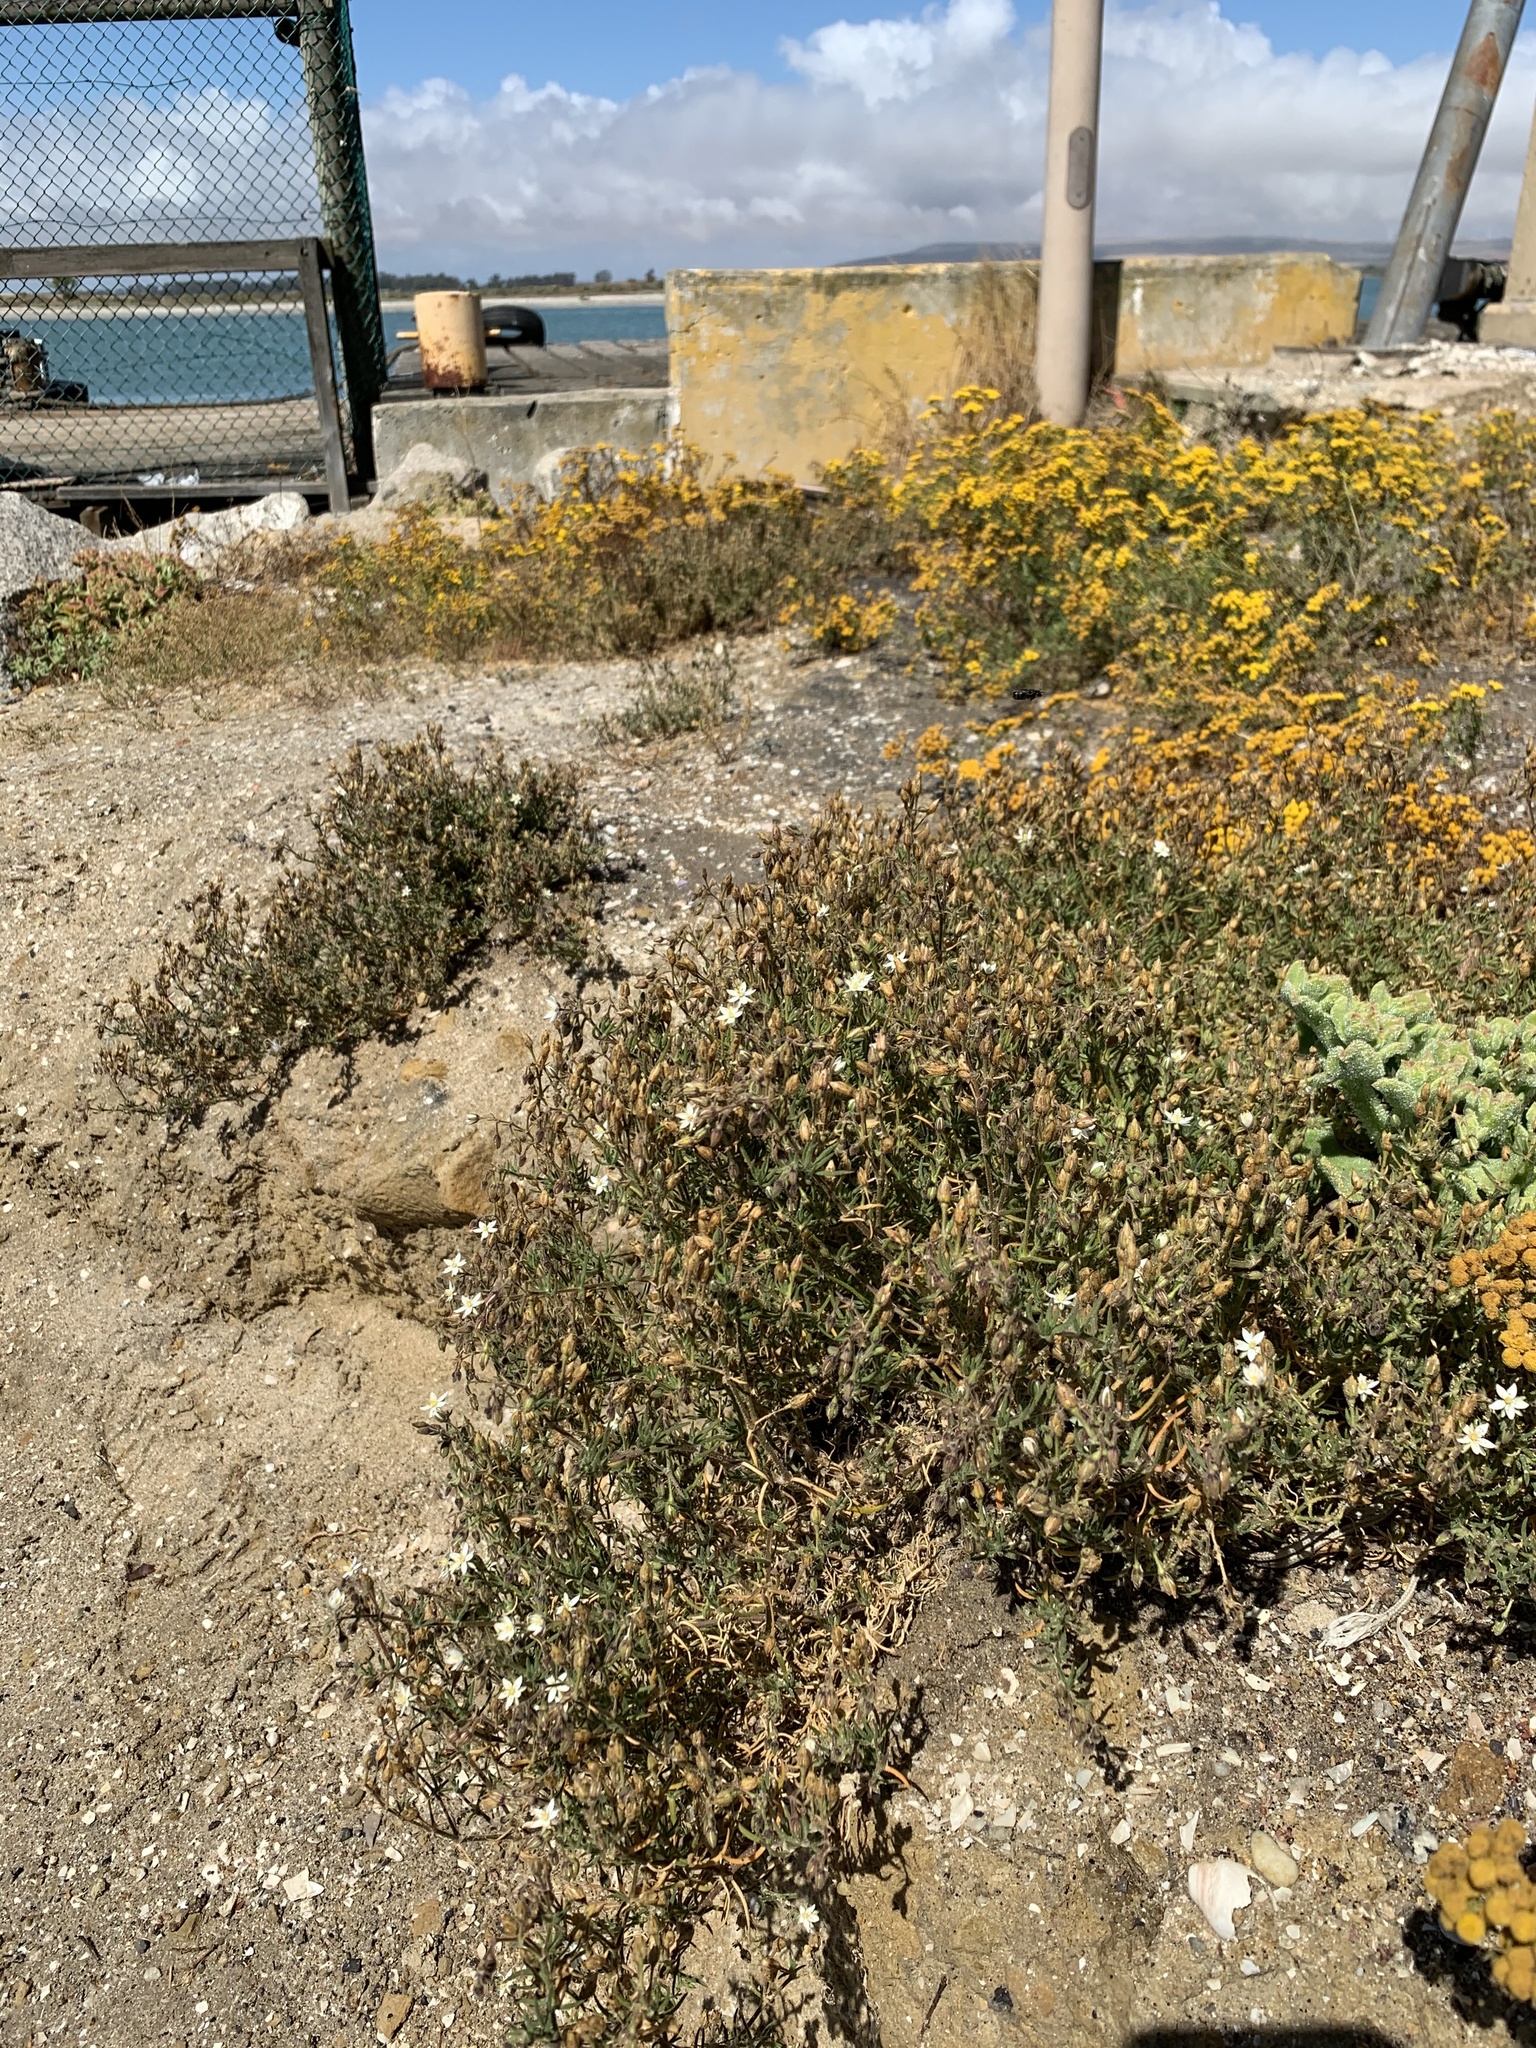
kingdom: Plantae
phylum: Tracheophyta
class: Magnoliopsida
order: Caryophyllales
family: Caryophyllaceae
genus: Spergularia
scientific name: Spergularia media
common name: Greater sea-spurrey
